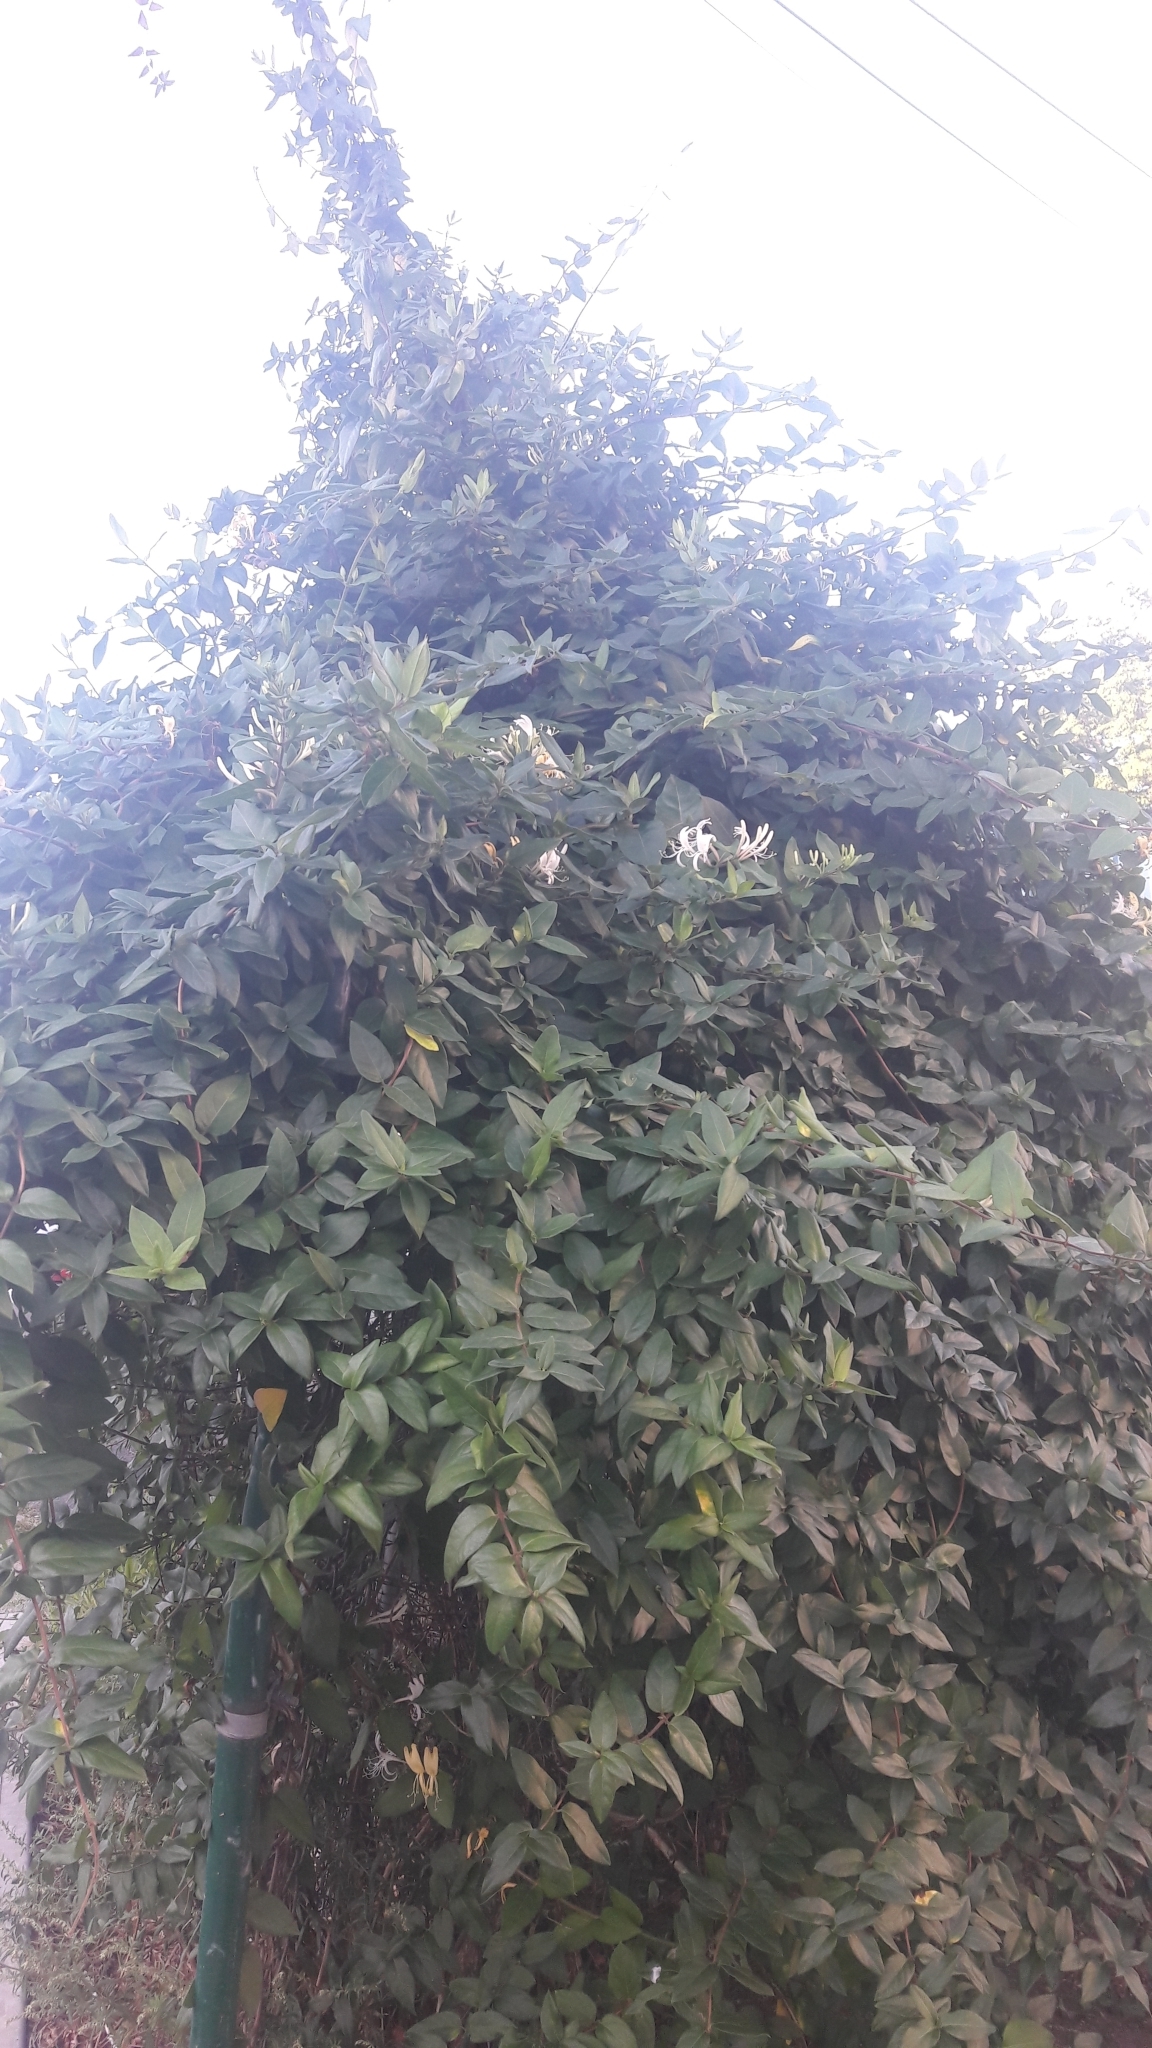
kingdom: Plantae
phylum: Tracheophyta
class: Magnoliopsida
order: Dipsacales
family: Caprifoliaceae
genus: Lonicera
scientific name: Lonicera japonica
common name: Japanese honeysuckle
